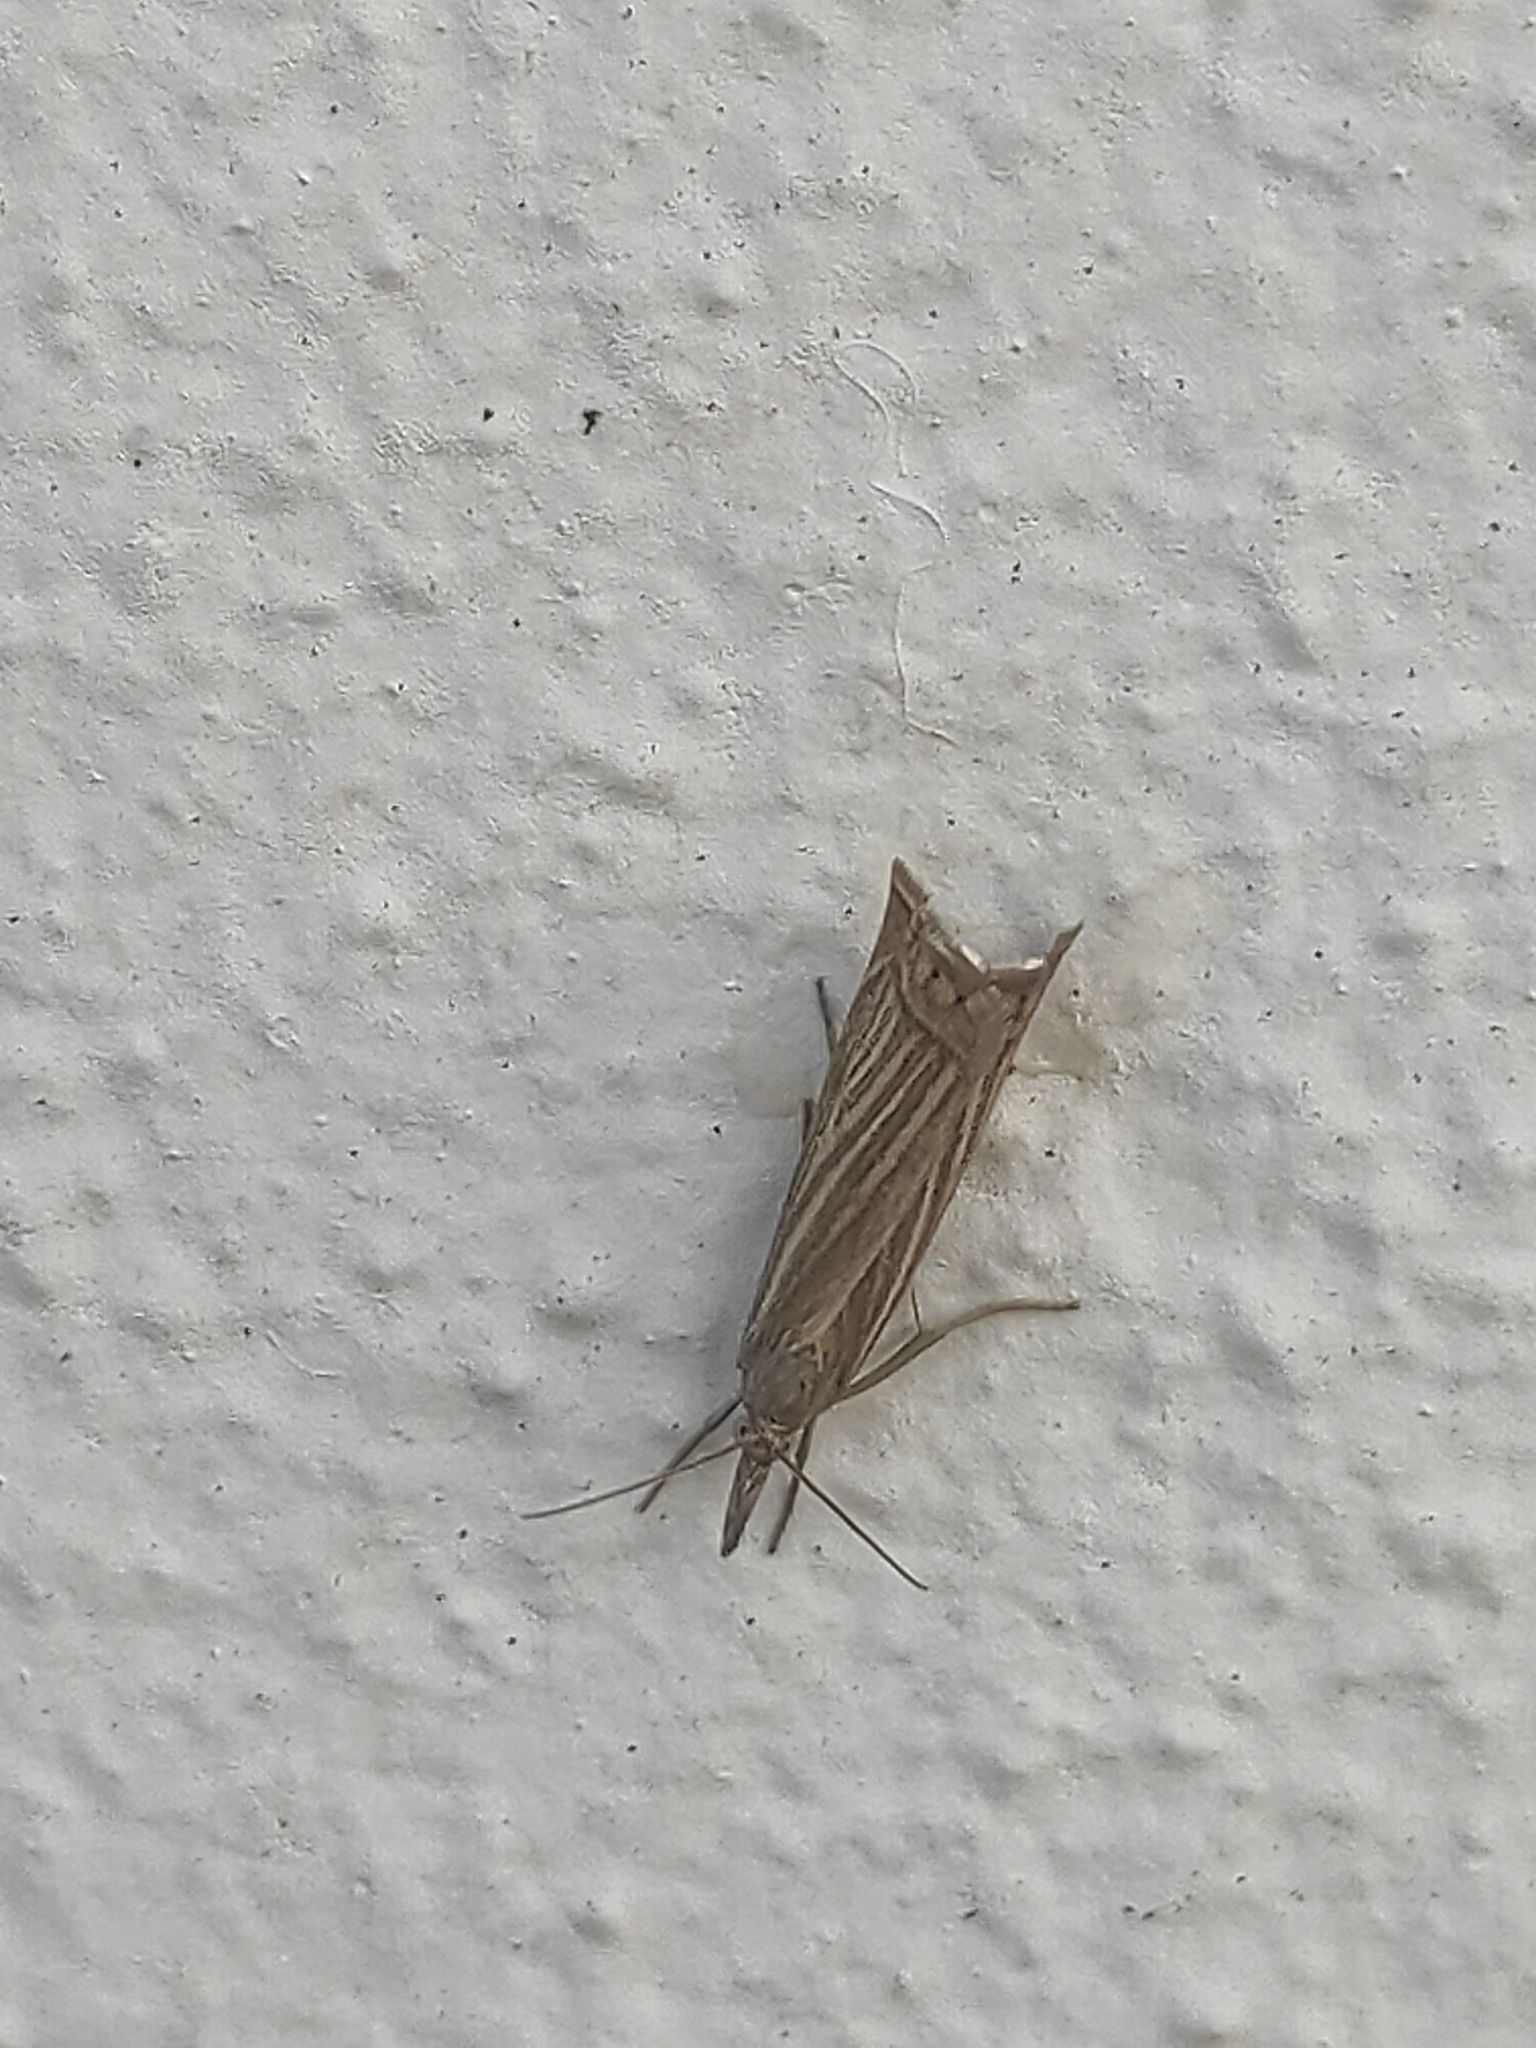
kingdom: Animalia
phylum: Arthropoda
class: Insecta
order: Lepidoptera
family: Crambidae
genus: Chrysoteuchia
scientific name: Chrysoteuchia culmella
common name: Garden grass-veneer
